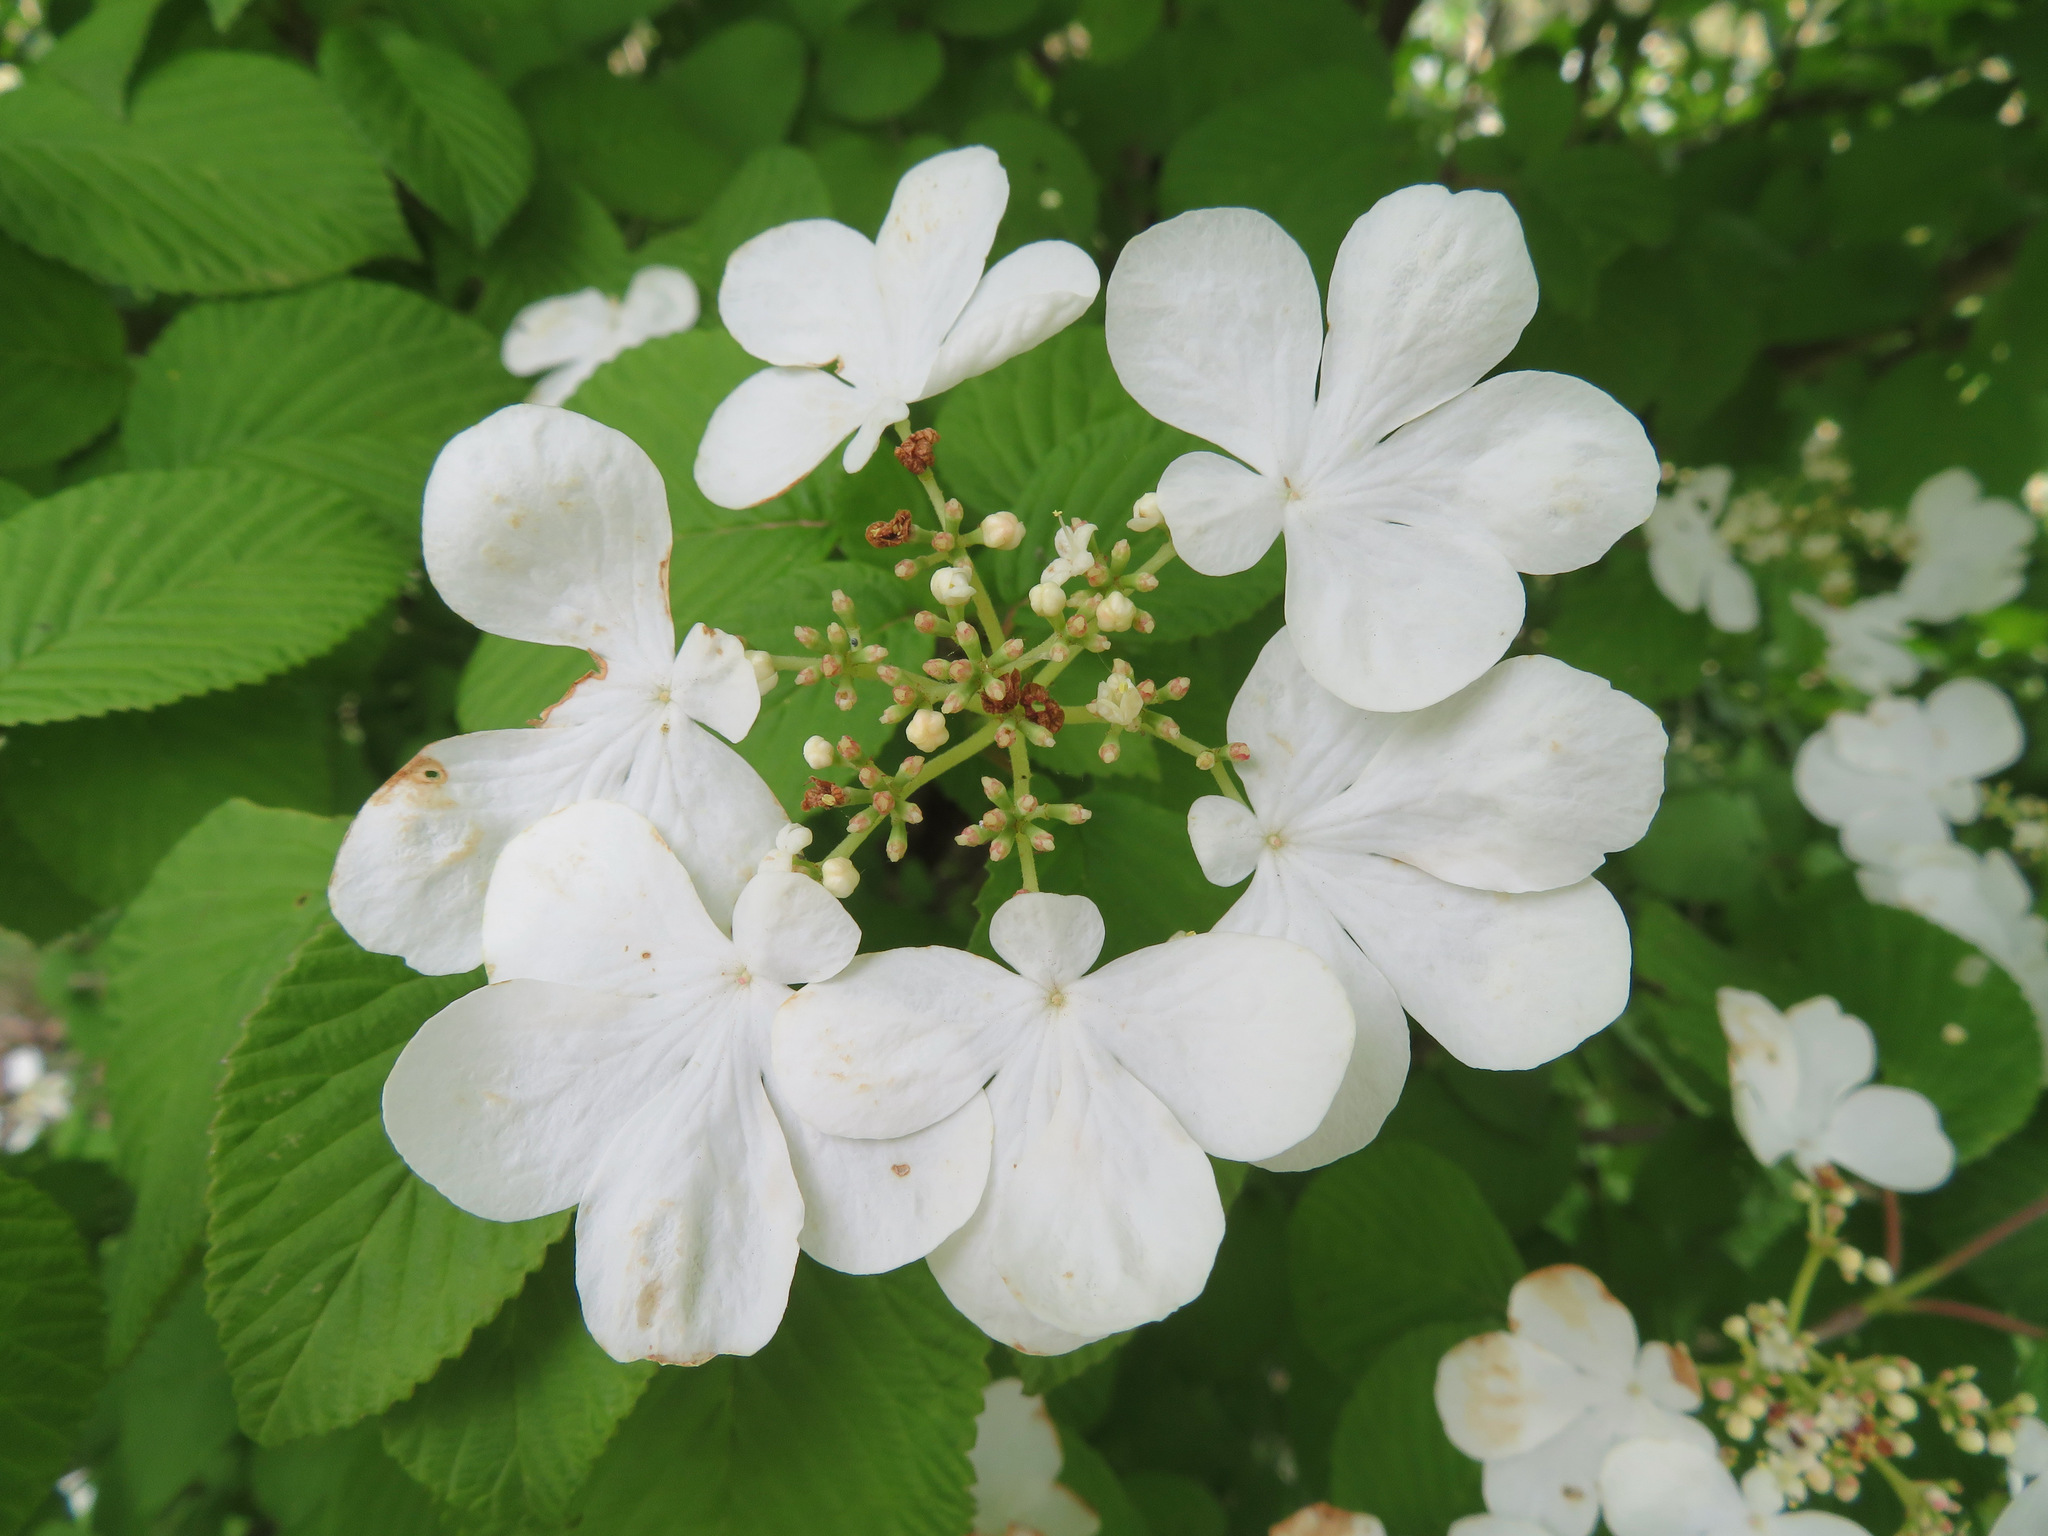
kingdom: Plantae
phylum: Tracheophyta
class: Magnoliopsida
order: Dipsacales
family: Viburnaceae
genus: Viburnum
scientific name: Viburnum plicatum
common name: Japanese snowball
